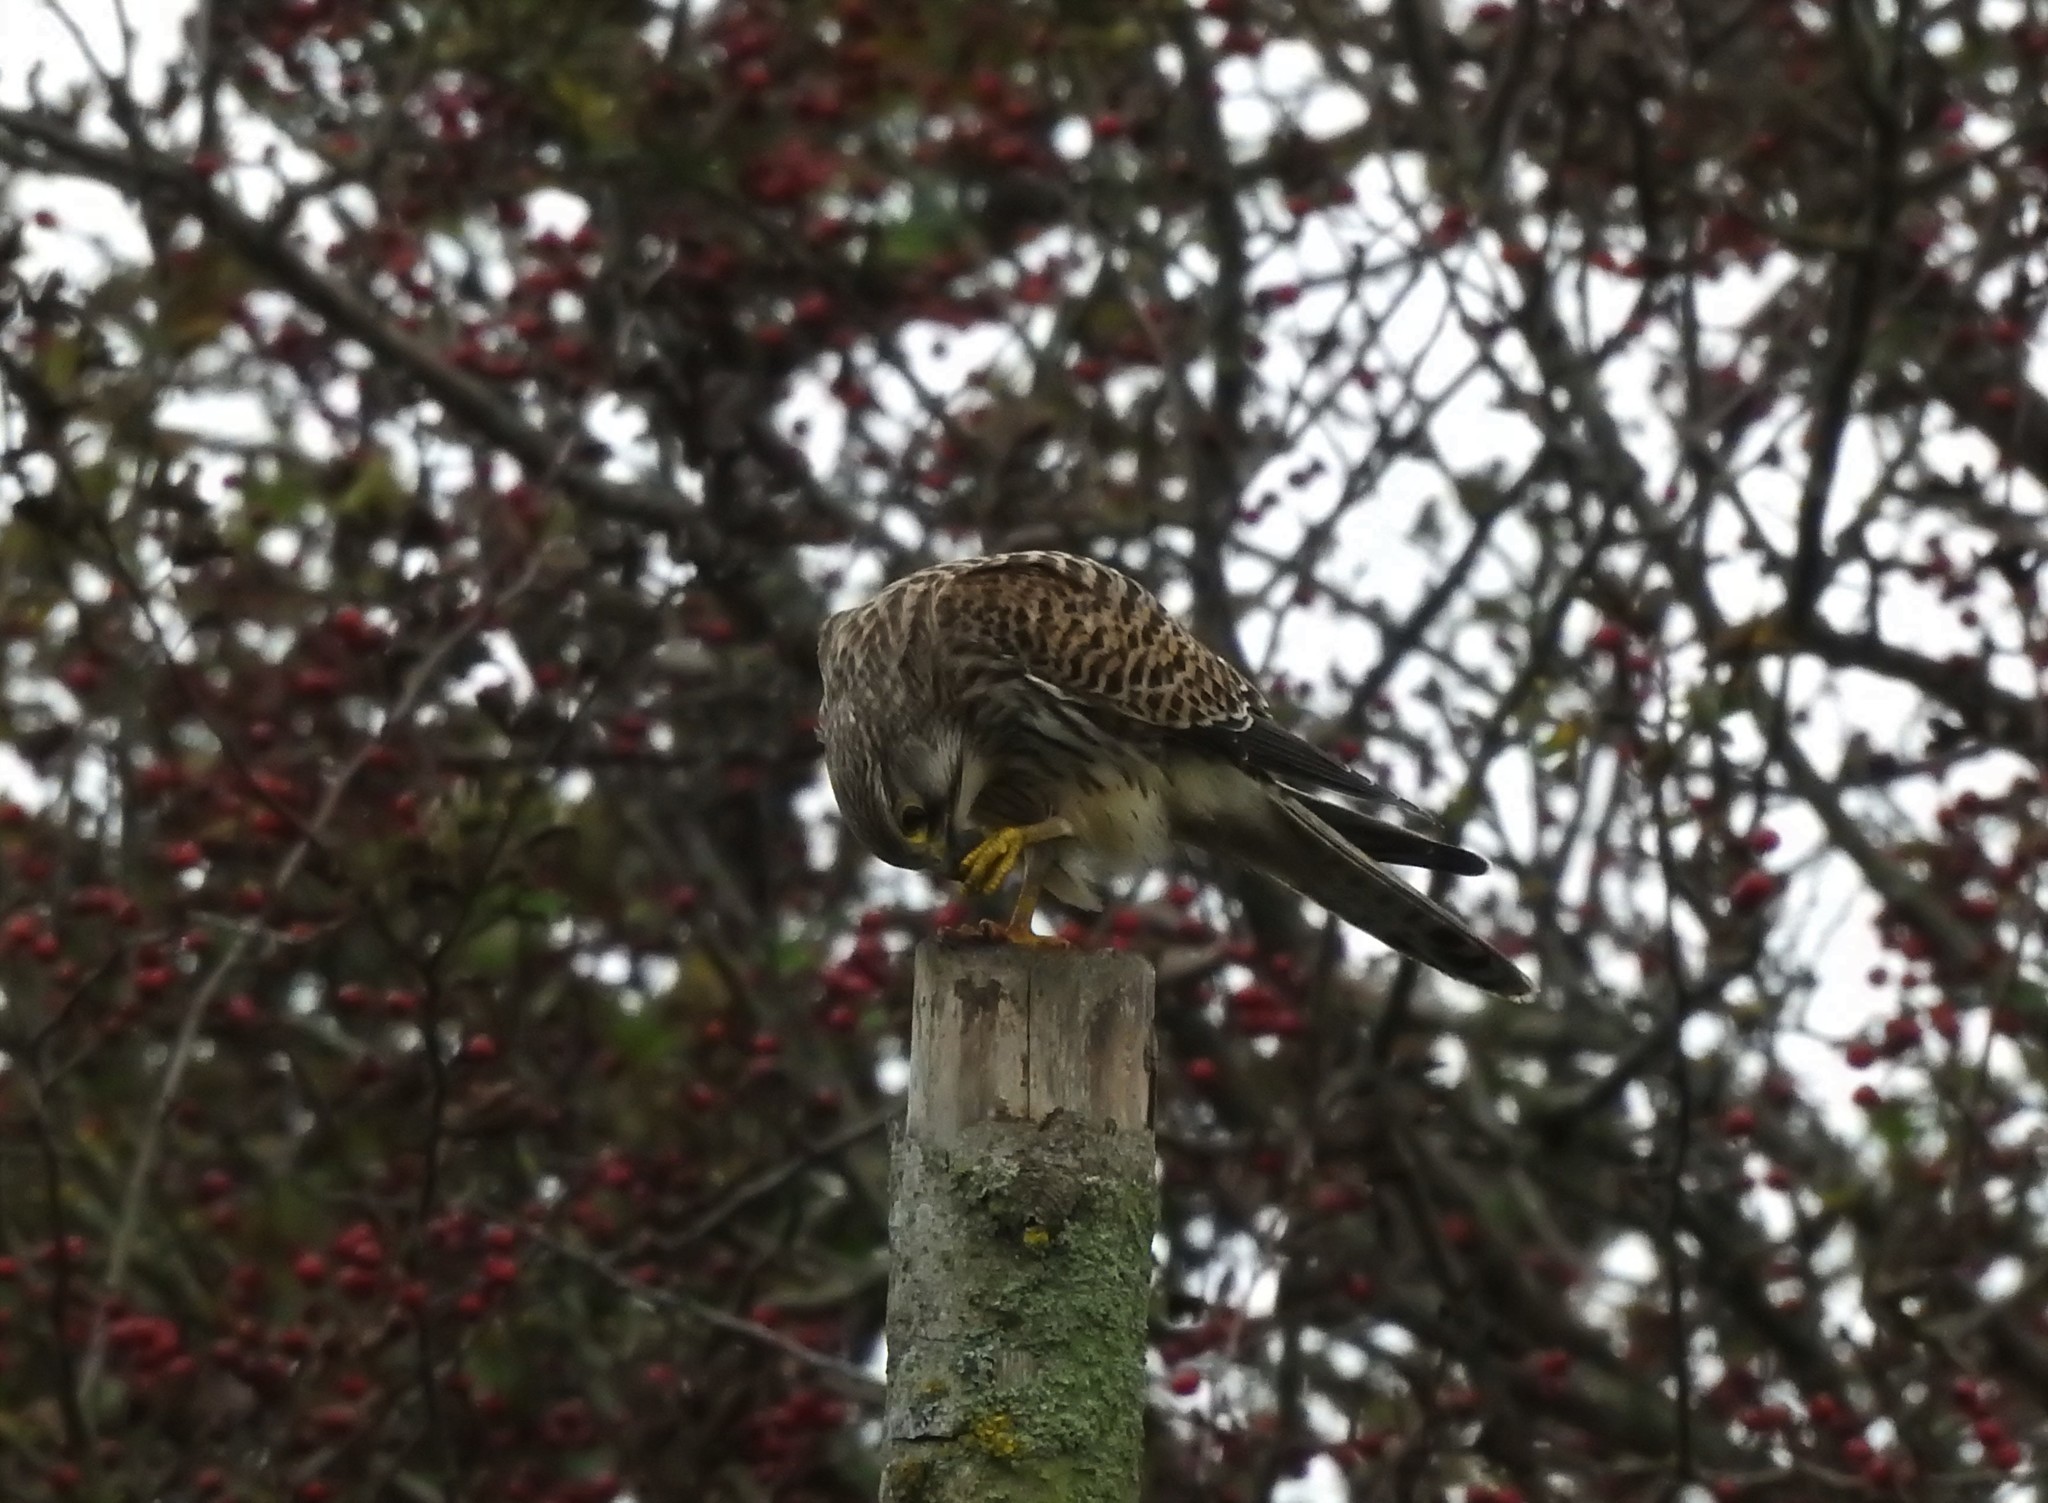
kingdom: Animalia
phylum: Chordata
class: Aves
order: Falconiformes
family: Falconidae
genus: Falco
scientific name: Falco tinnunculus
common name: Common kestrel
